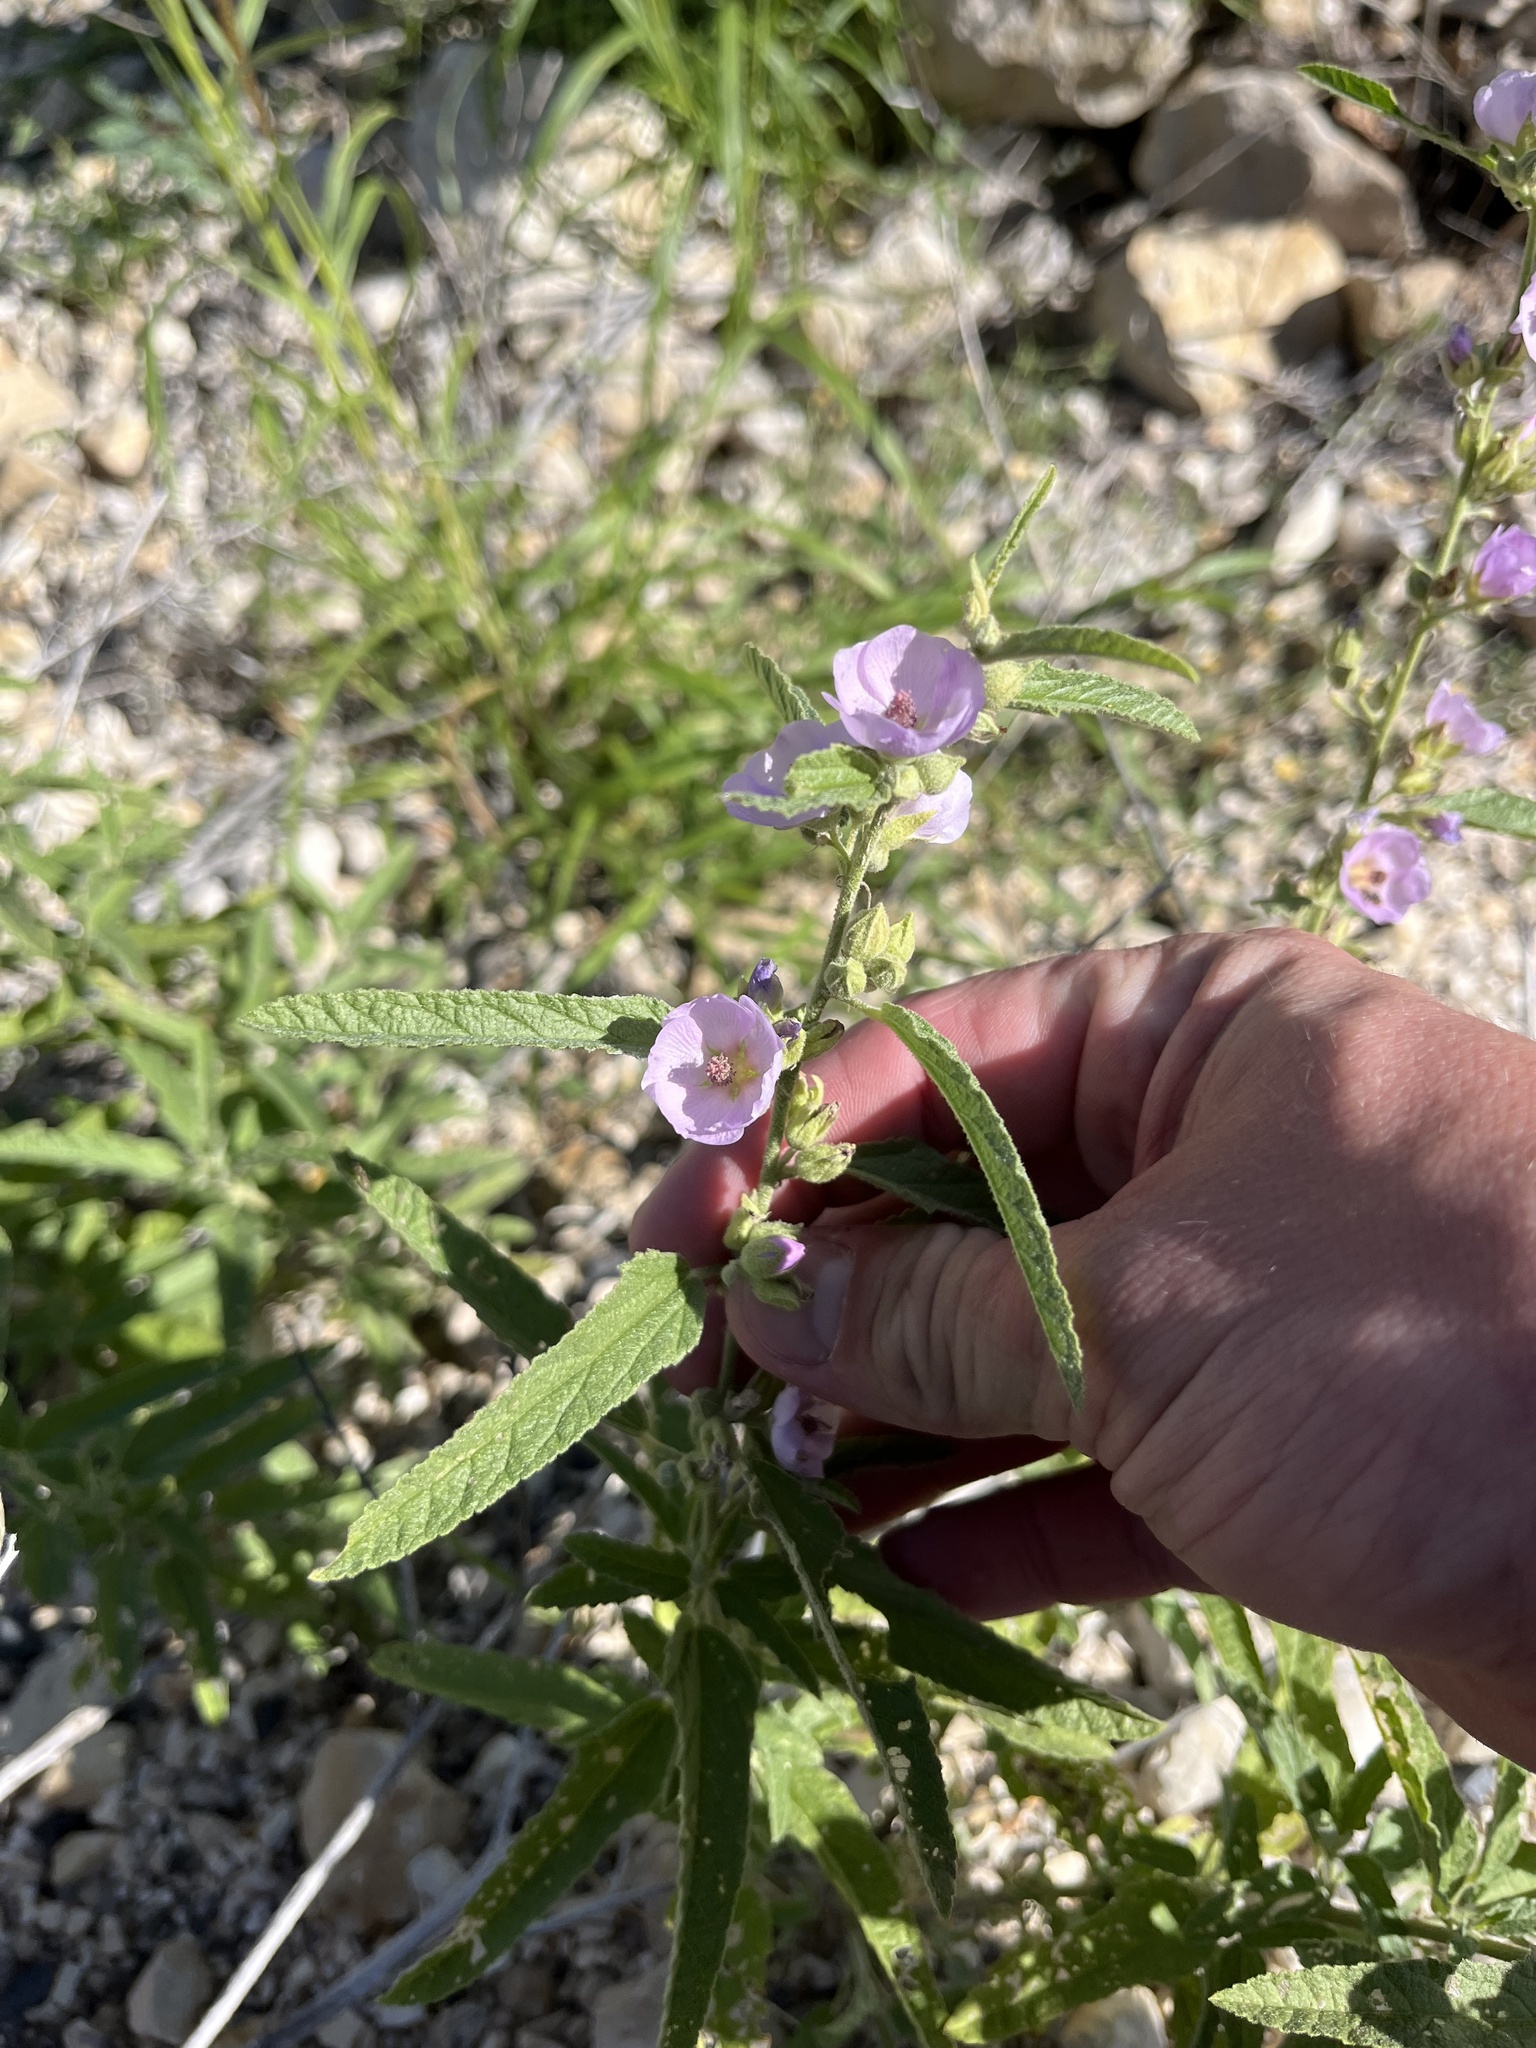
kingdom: Plantae
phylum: Tracheophyta
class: Magnoliopsida
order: Malvales
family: Malvaceae
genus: Sphaeralcea
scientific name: Sphaeralcea angustifolia
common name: Copper globe-mallow
